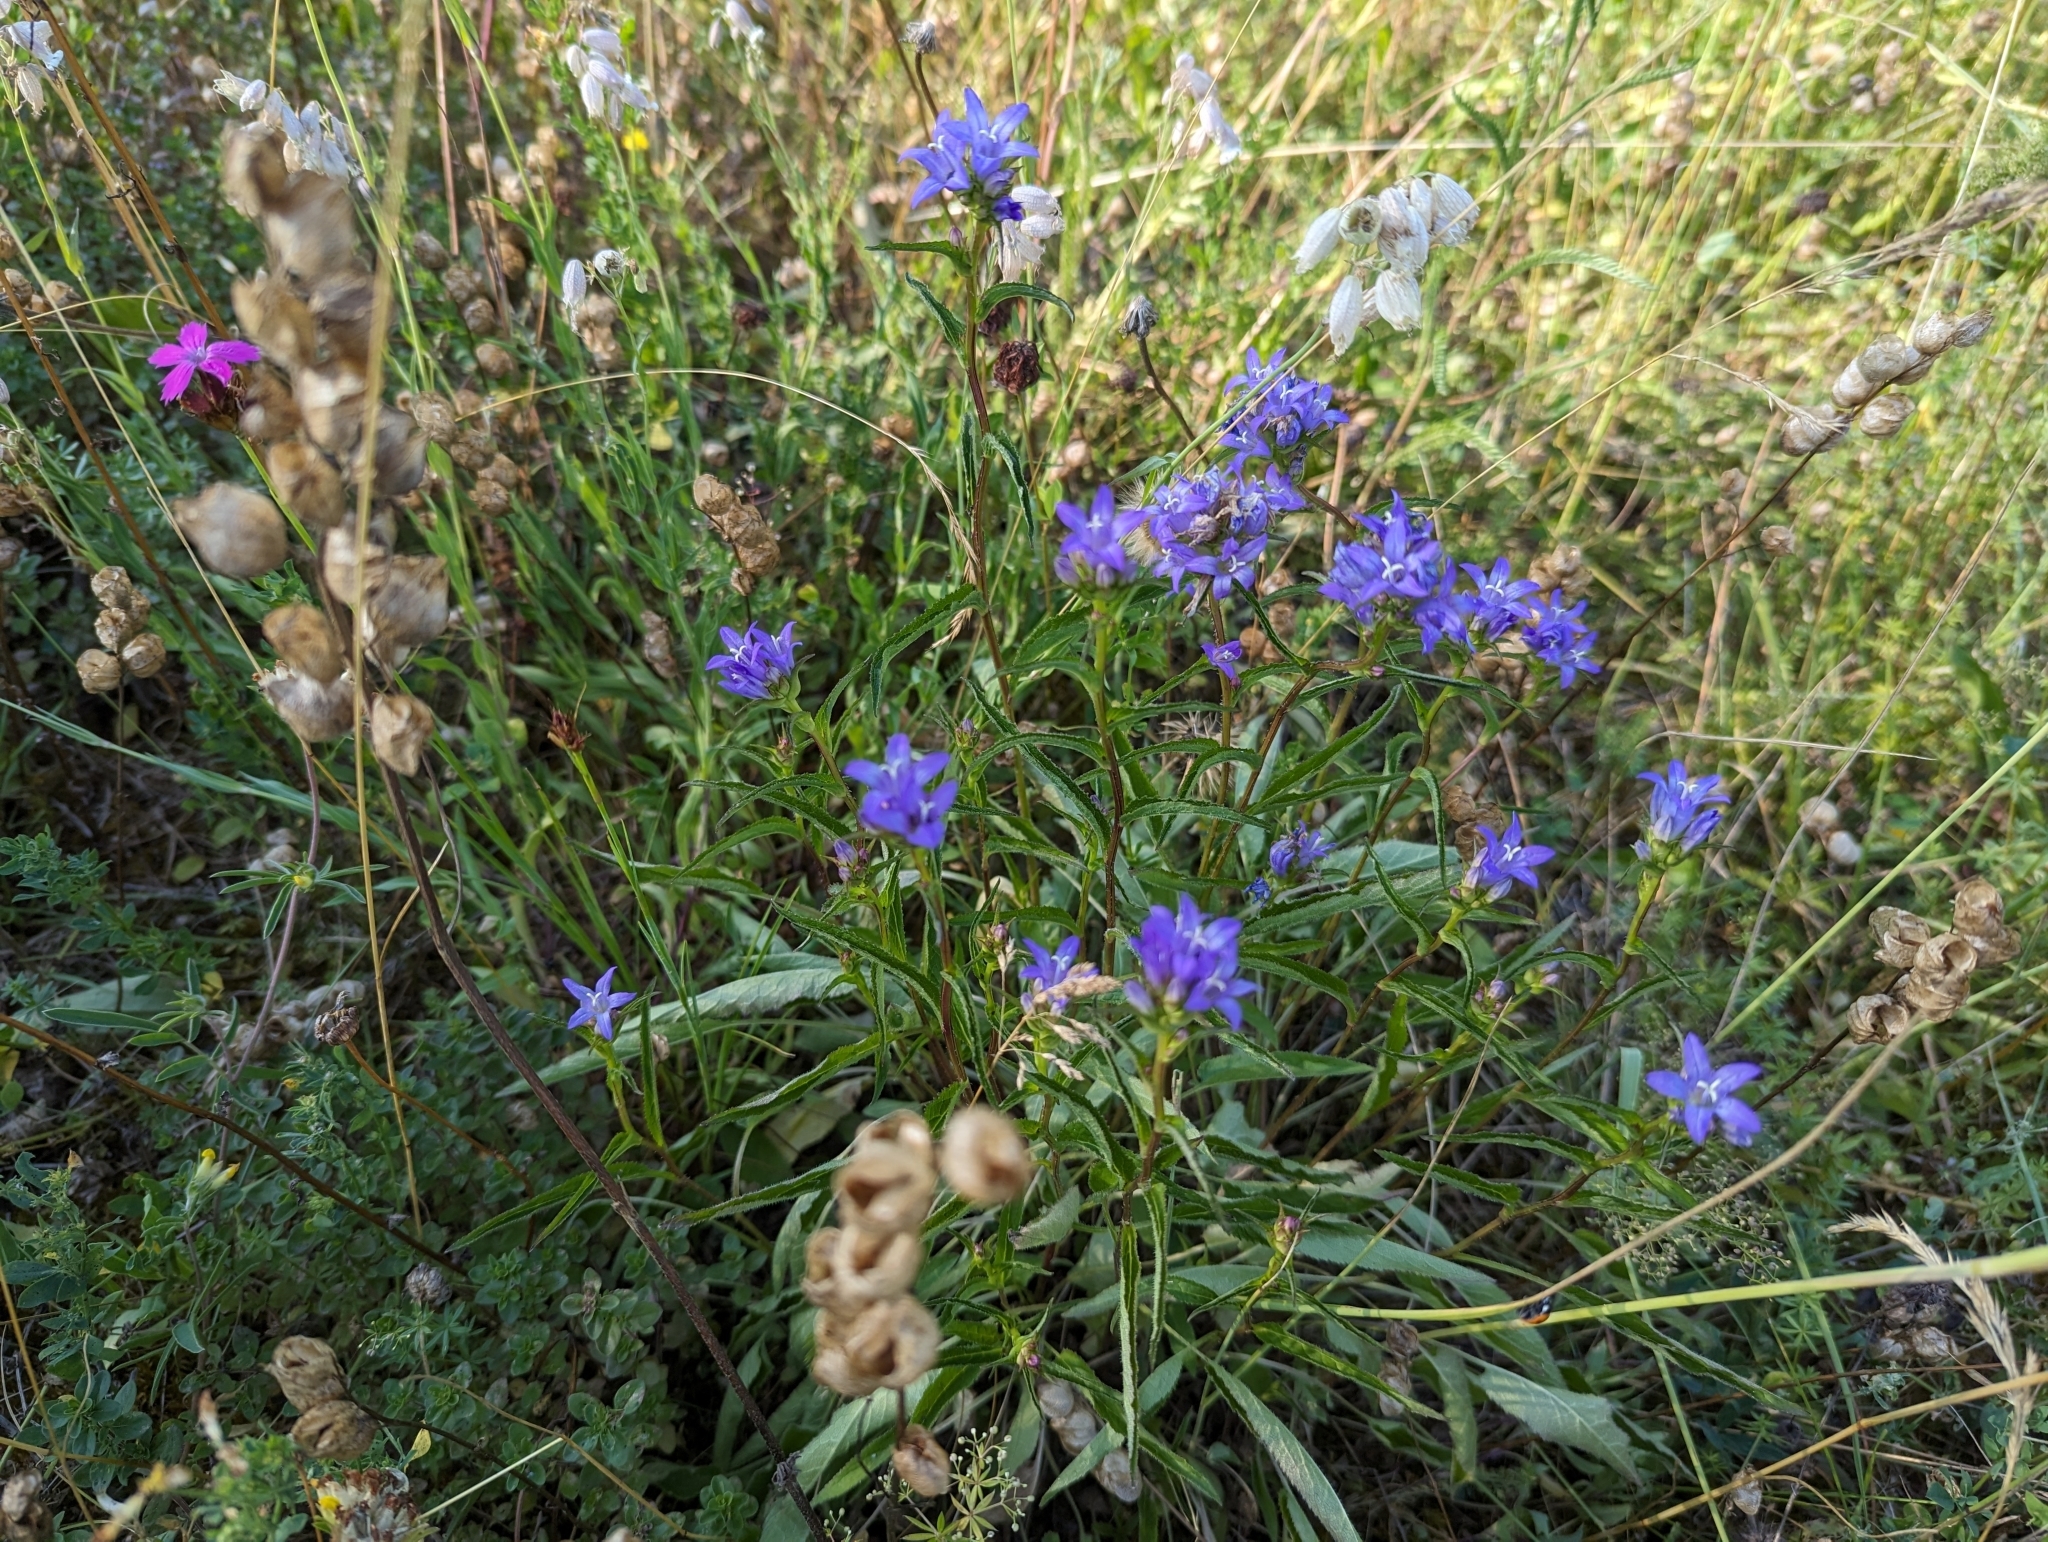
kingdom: Plantae
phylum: Tracheophyta
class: Magnoliopsida
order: Asterales
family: Campanulaceae
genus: Campanula
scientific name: Campanula glomerata
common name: Clustered bellflower
